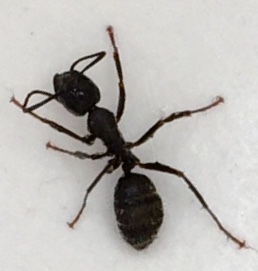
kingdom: Animalia
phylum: Arthropoda
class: Insecta
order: Hymenoptera
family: Formicidae
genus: Camponotus
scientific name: Camponotus pennsylvanicus
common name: Black carpenter ant
